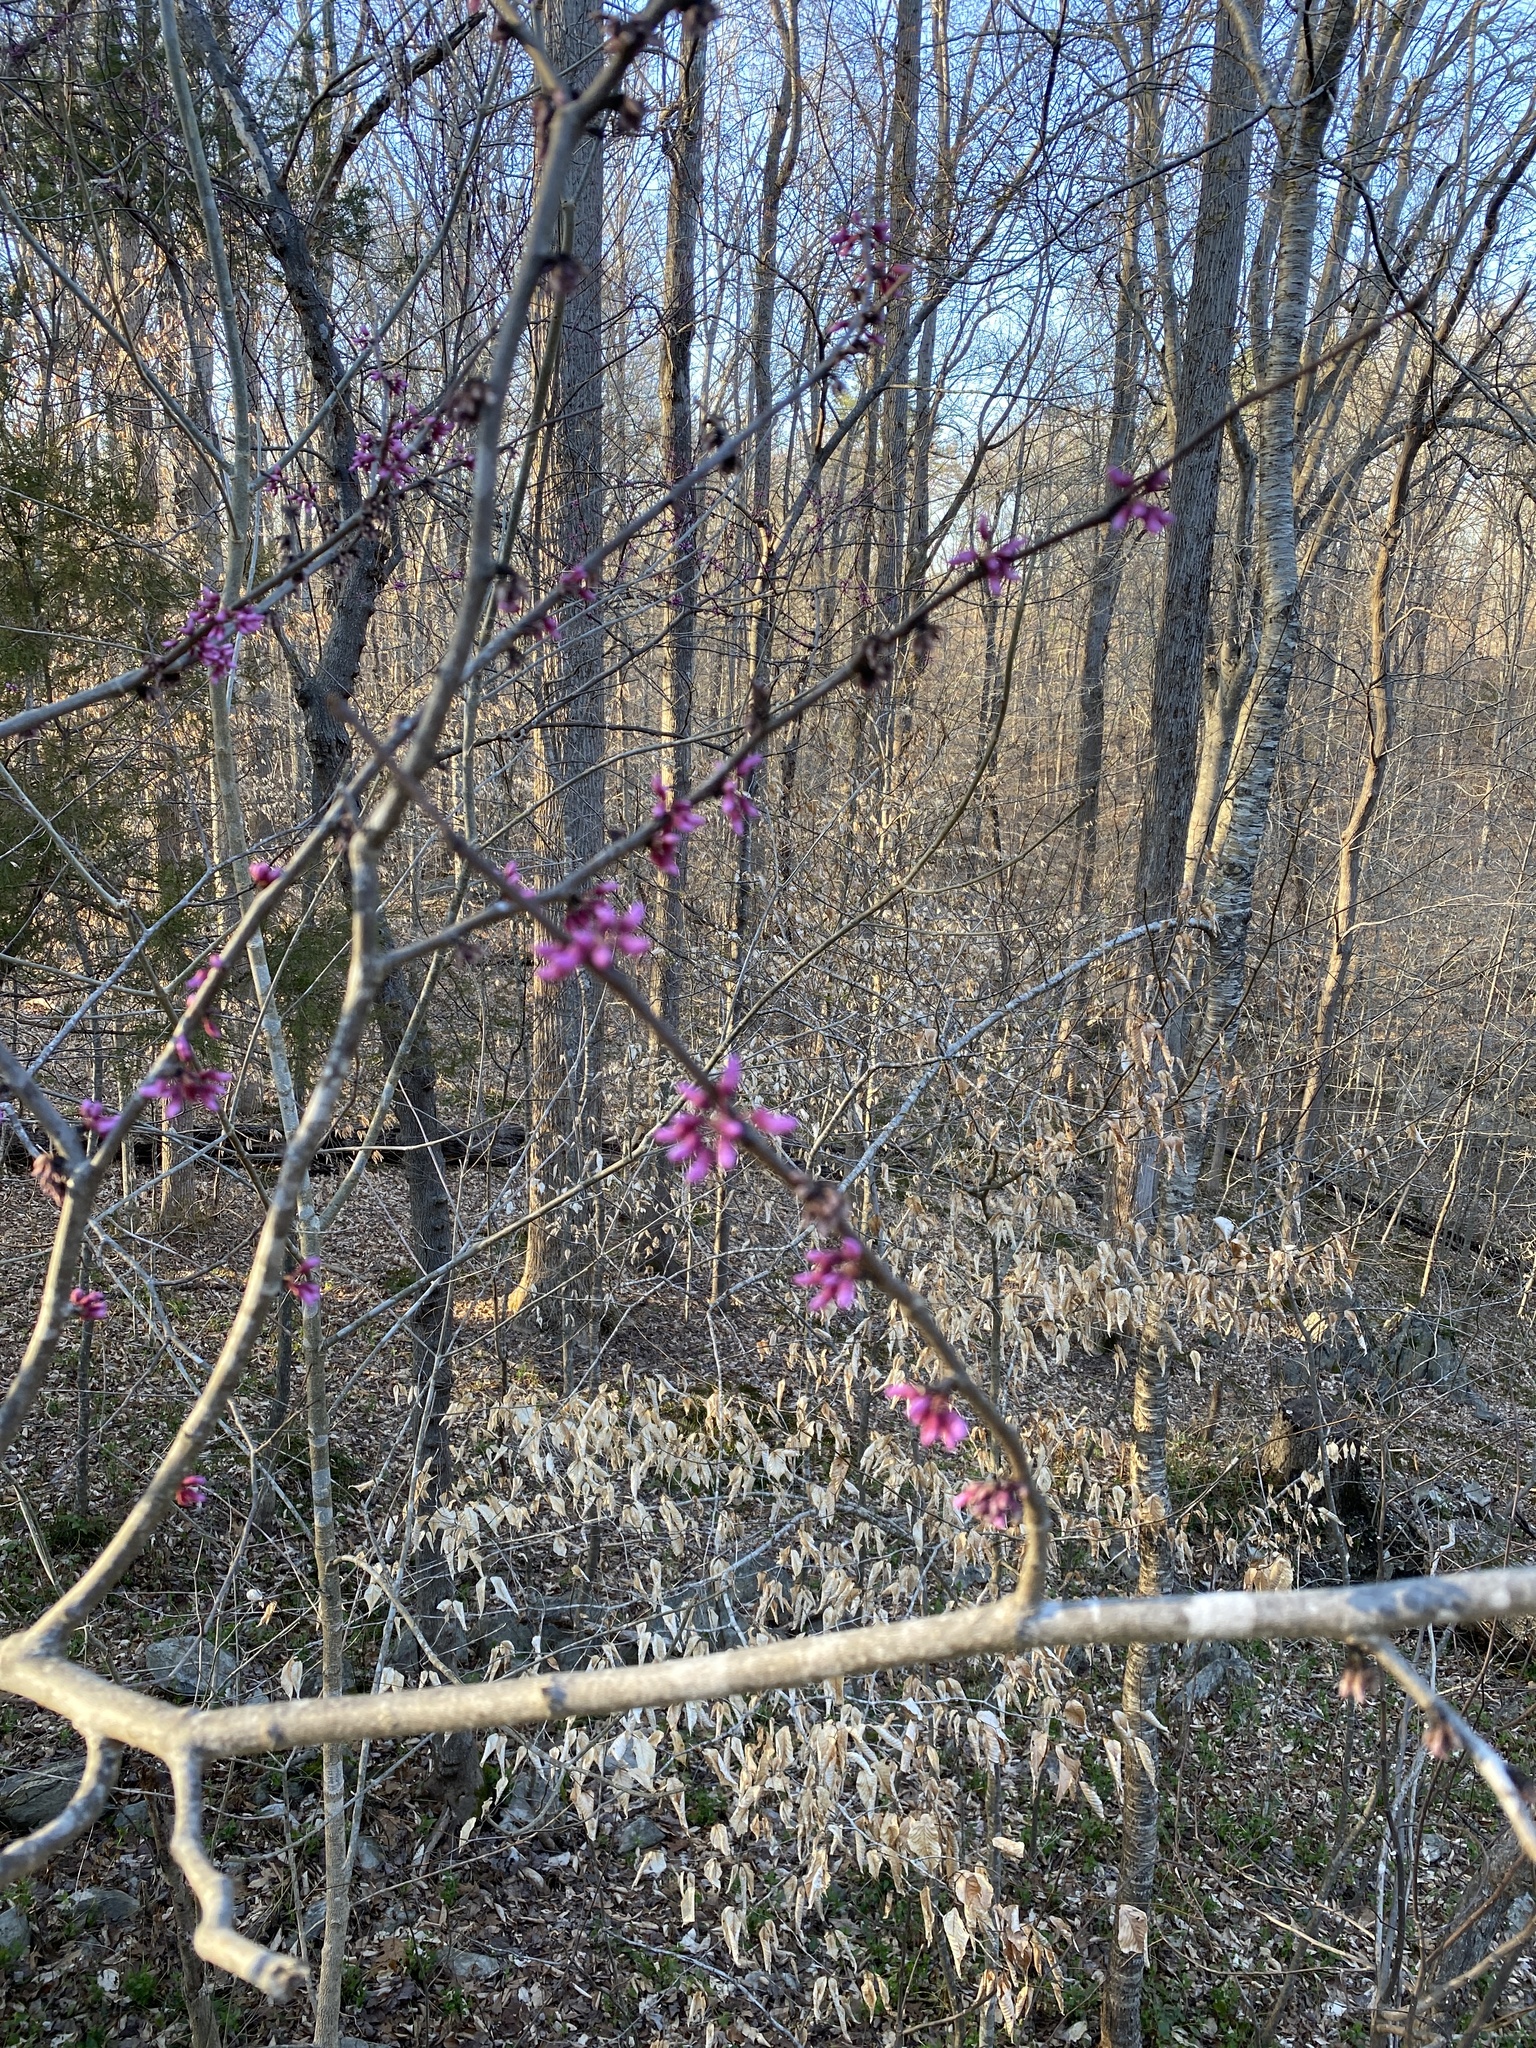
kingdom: Plantae
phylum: Tracheophyta
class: Magnoliopsida
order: Fabales
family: Fabaceae
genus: Cercis
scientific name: Cercis canadensis
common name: Eastern redbud
